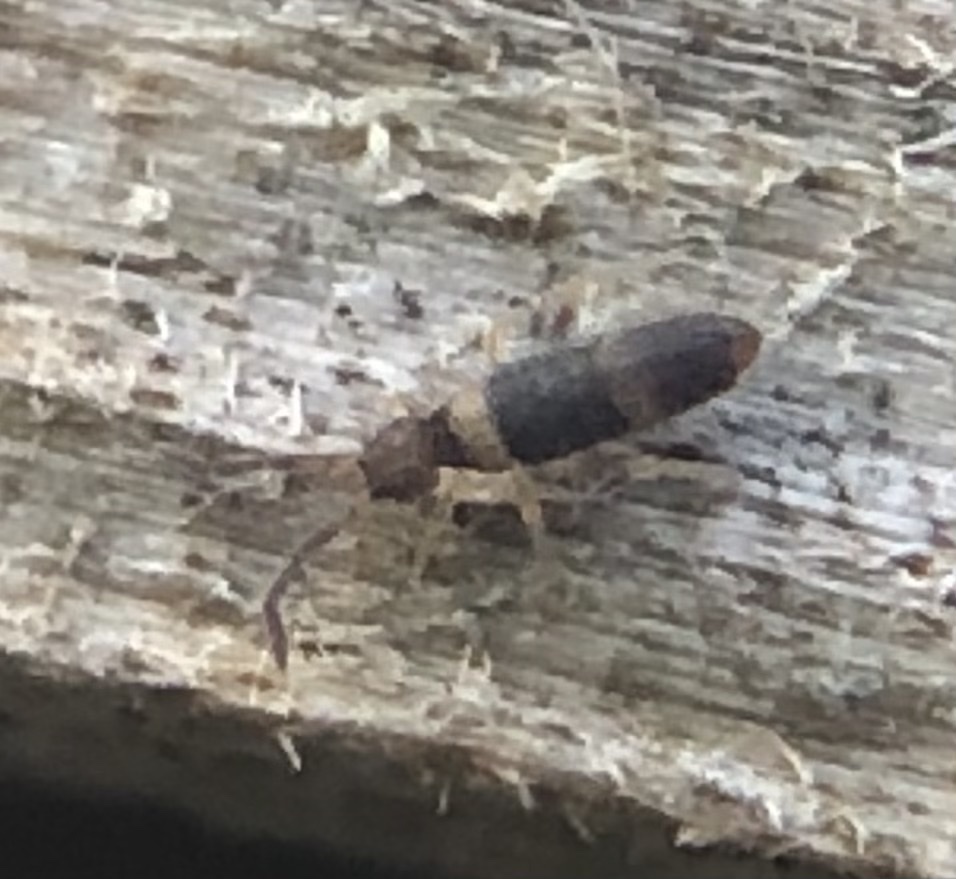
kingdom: Animalia
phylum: Arthropoda
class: Collembola
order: Entomobryomorpha
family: Entomobryidae
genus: Entomobrya
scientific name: Entomobrya albocincta
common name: Springtail
